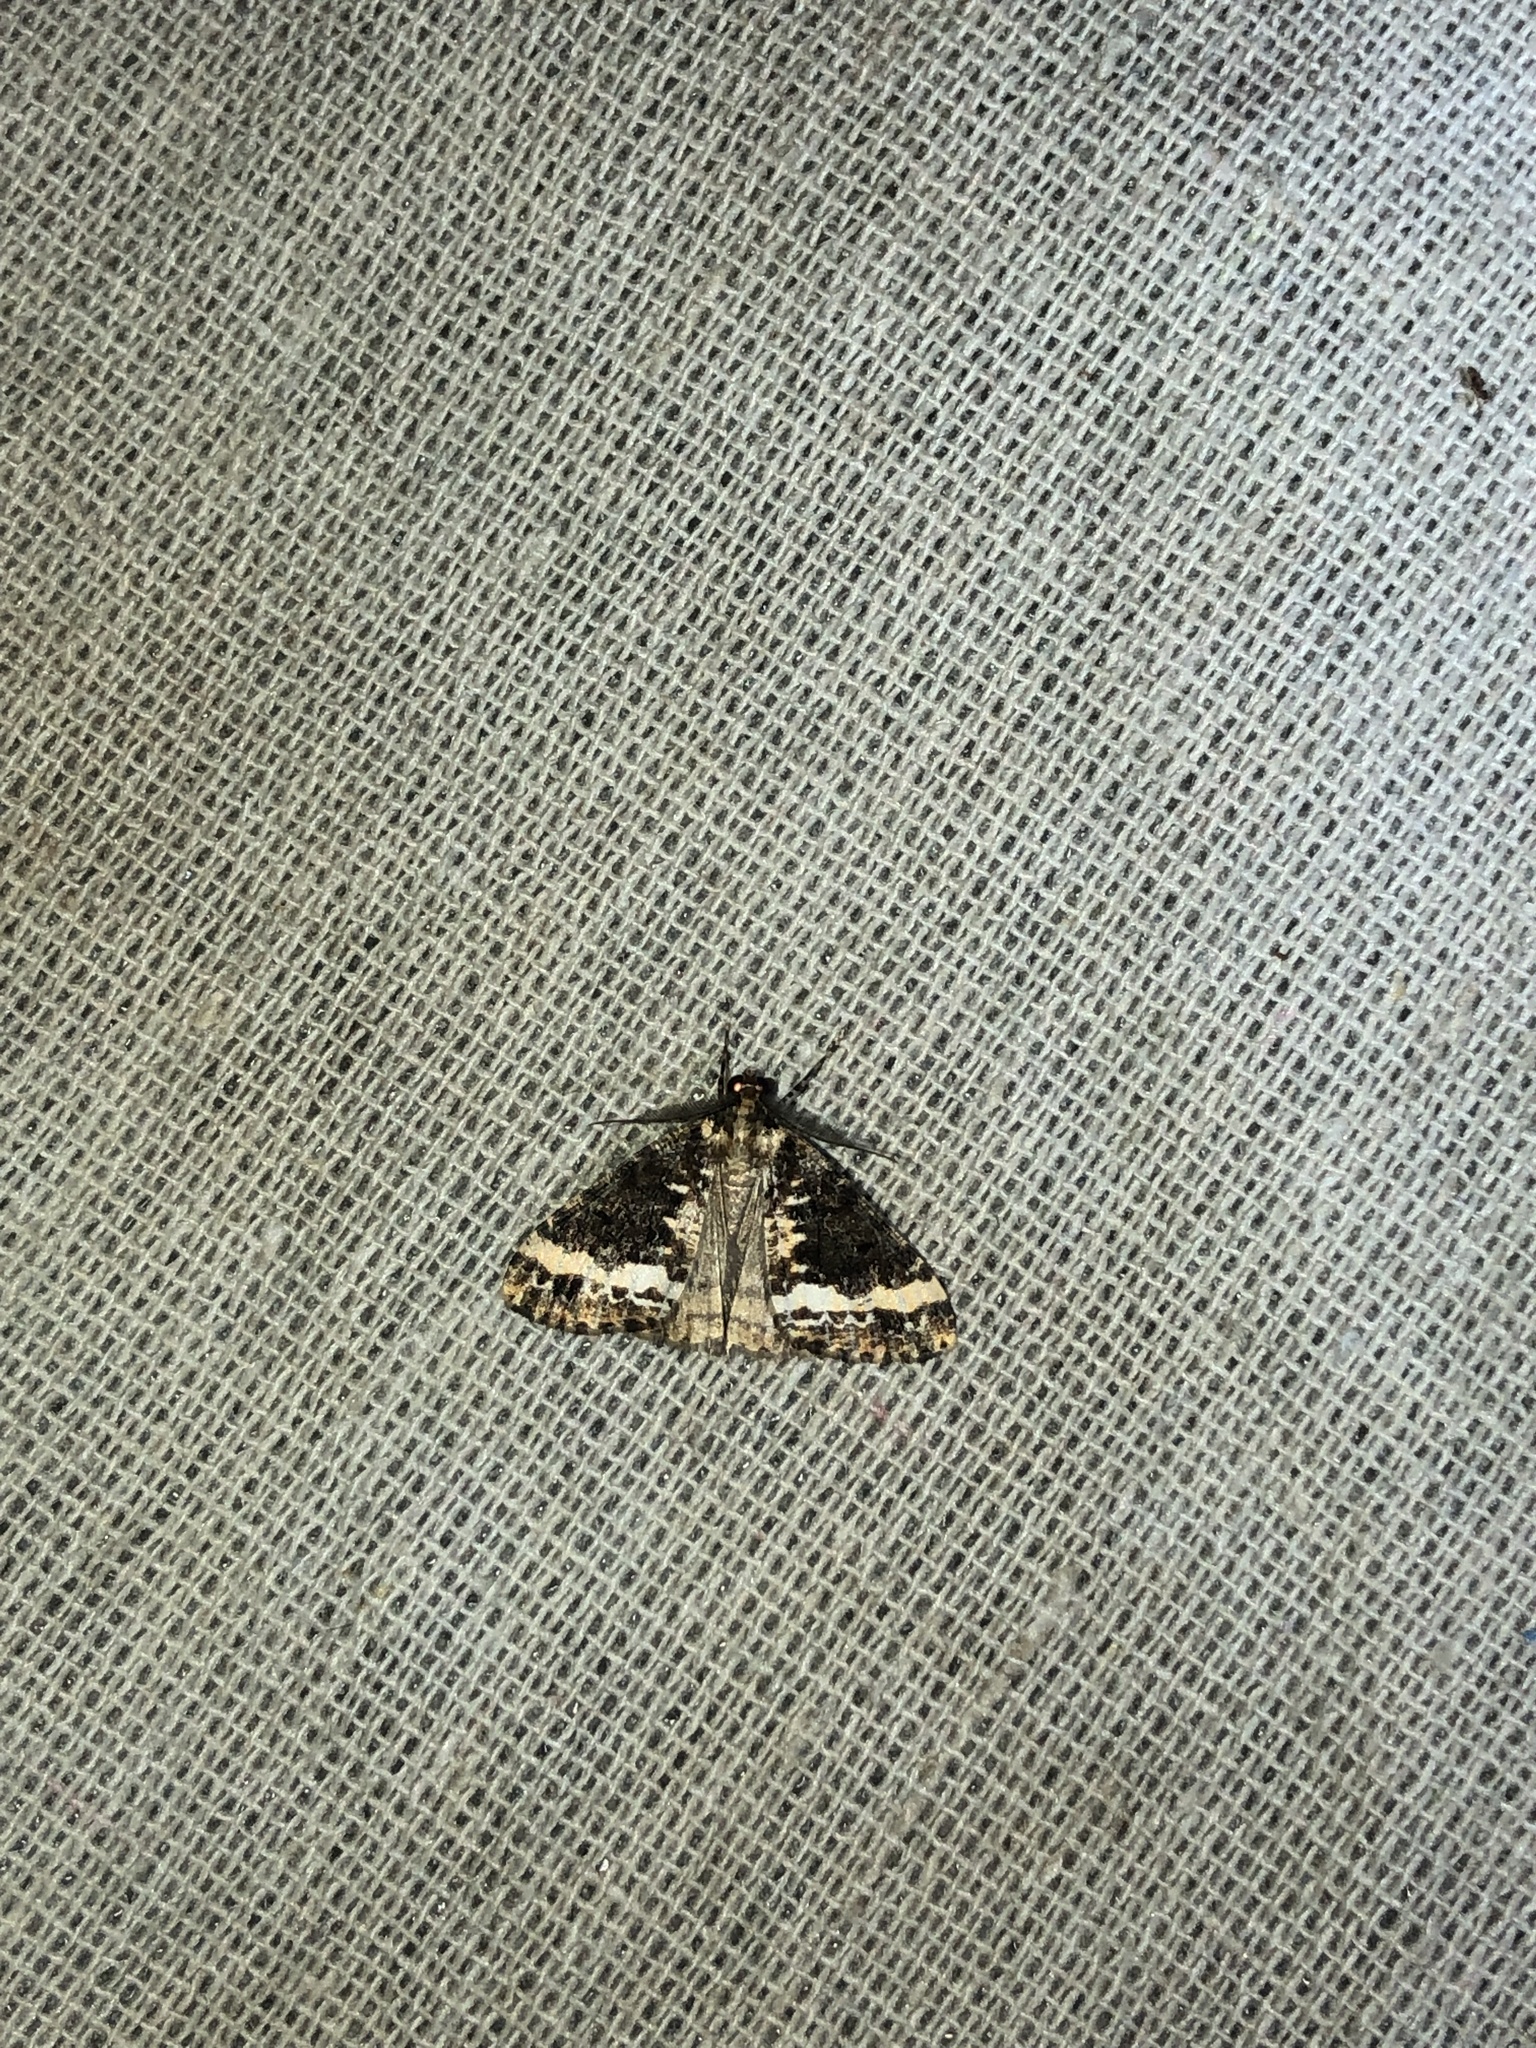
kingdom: Animalia
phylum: Arthropoda
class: Insecta
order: Lepidoptera
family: Geometridae
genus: Pseudocoremia
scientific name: Pseudocoremia leucelaea
